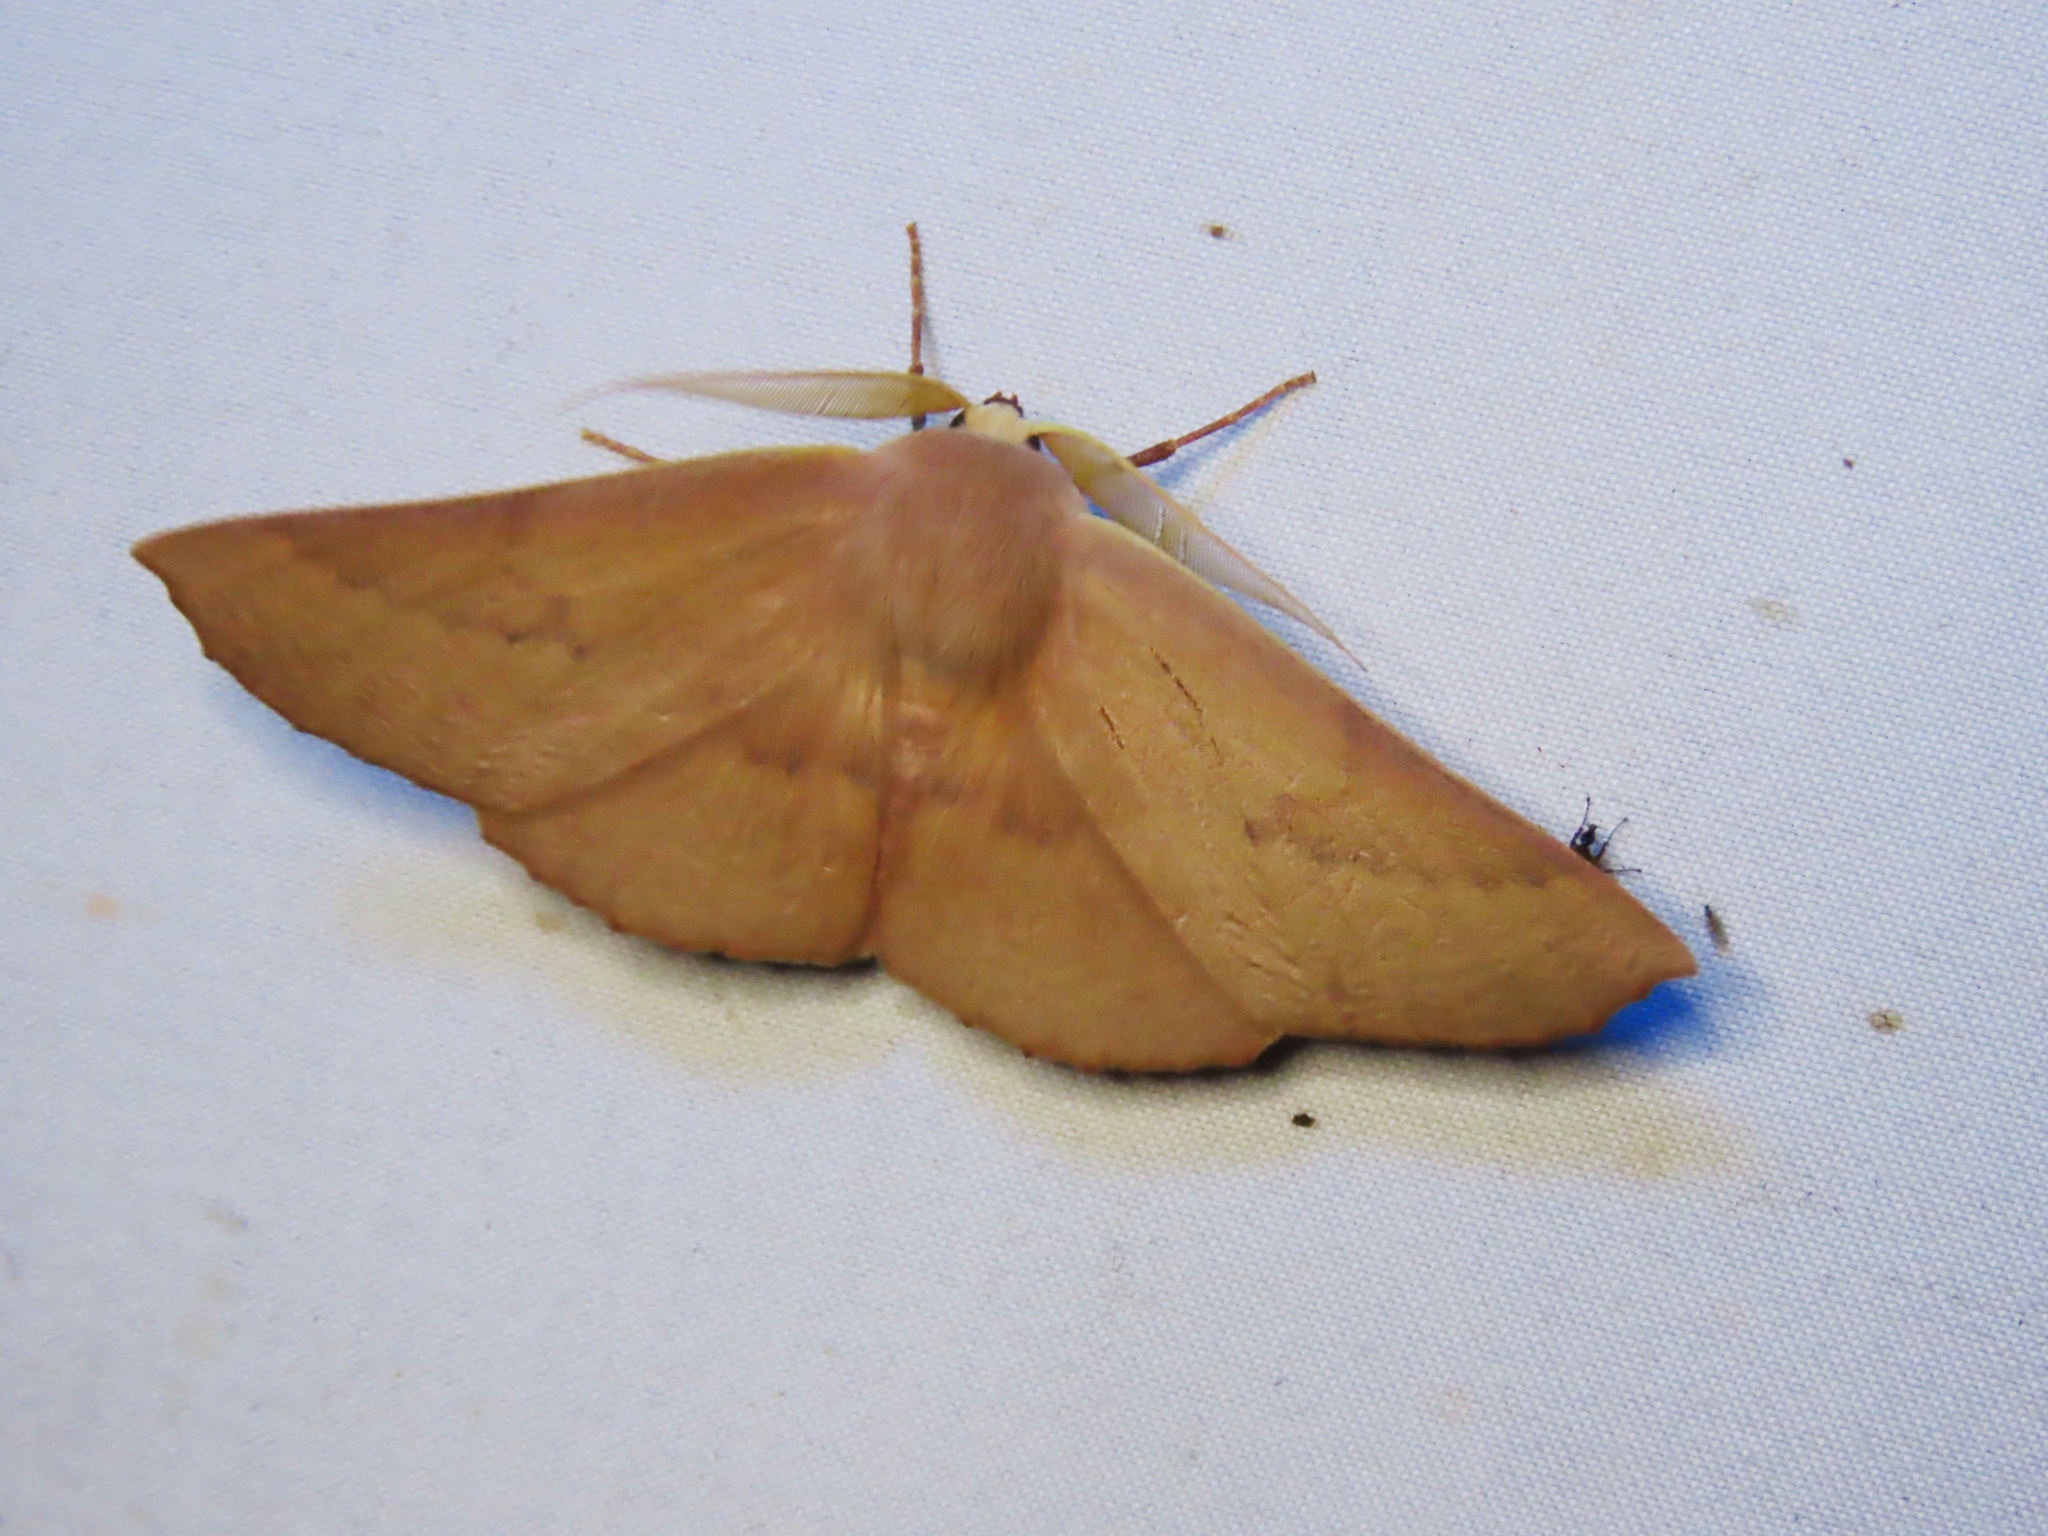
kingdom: Animalia
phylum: Arthropoda
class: Insecta
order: Lepidoptera
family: Geometridae
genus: Monoctenia
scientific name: Monoctenia falernaria
